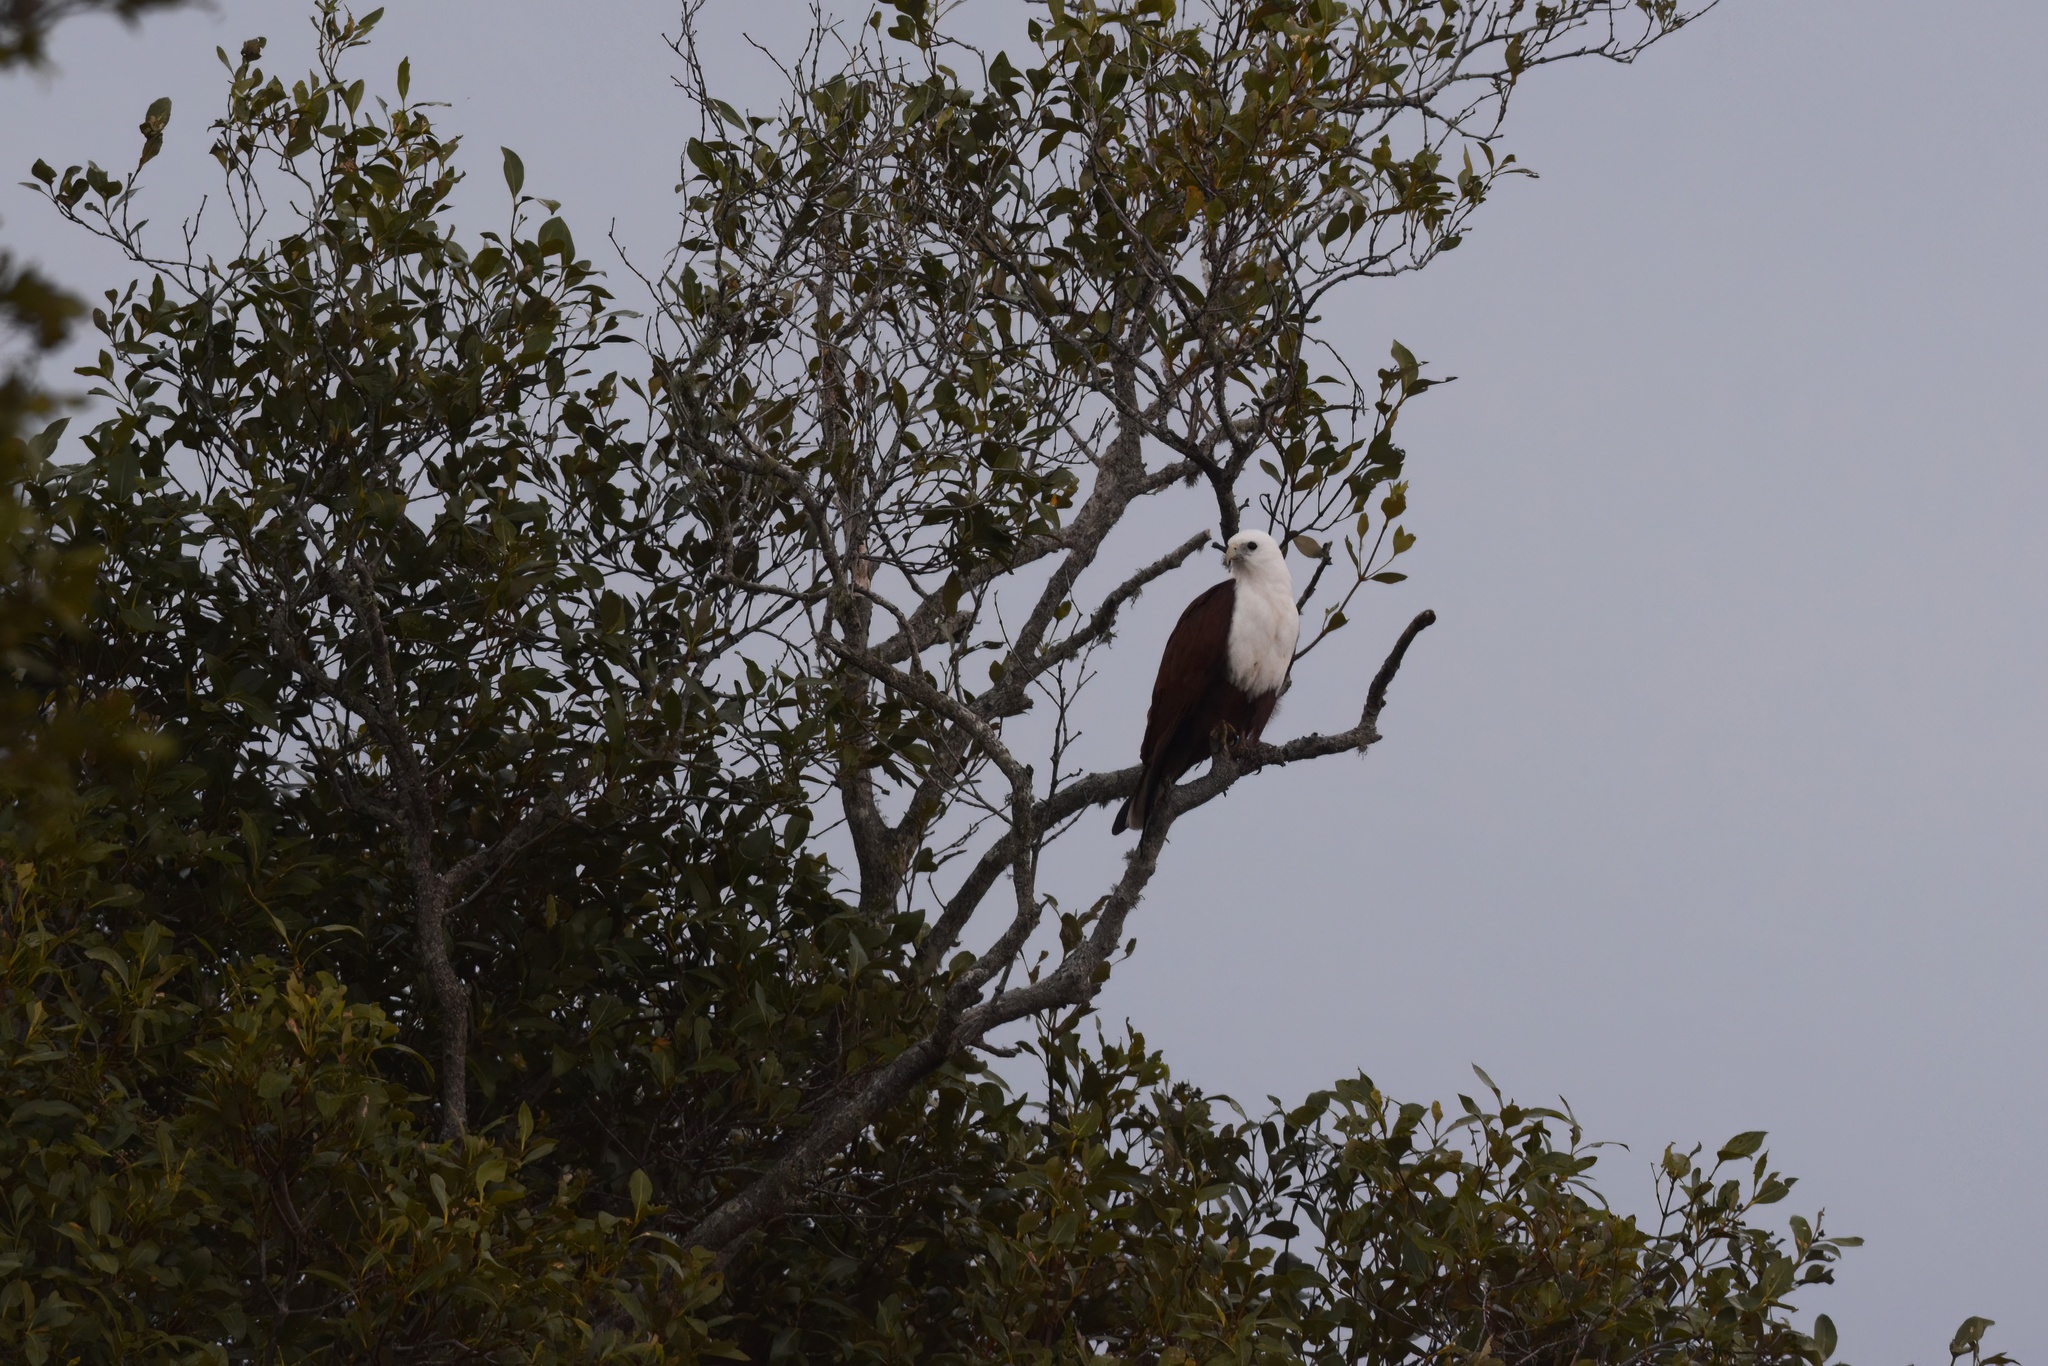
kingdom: Animalia
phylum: Chordata
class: Aves
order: Accipitriformes
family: Accipitridae
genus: Haliastur
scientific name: Haliastur indus
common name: Brahminy kite
